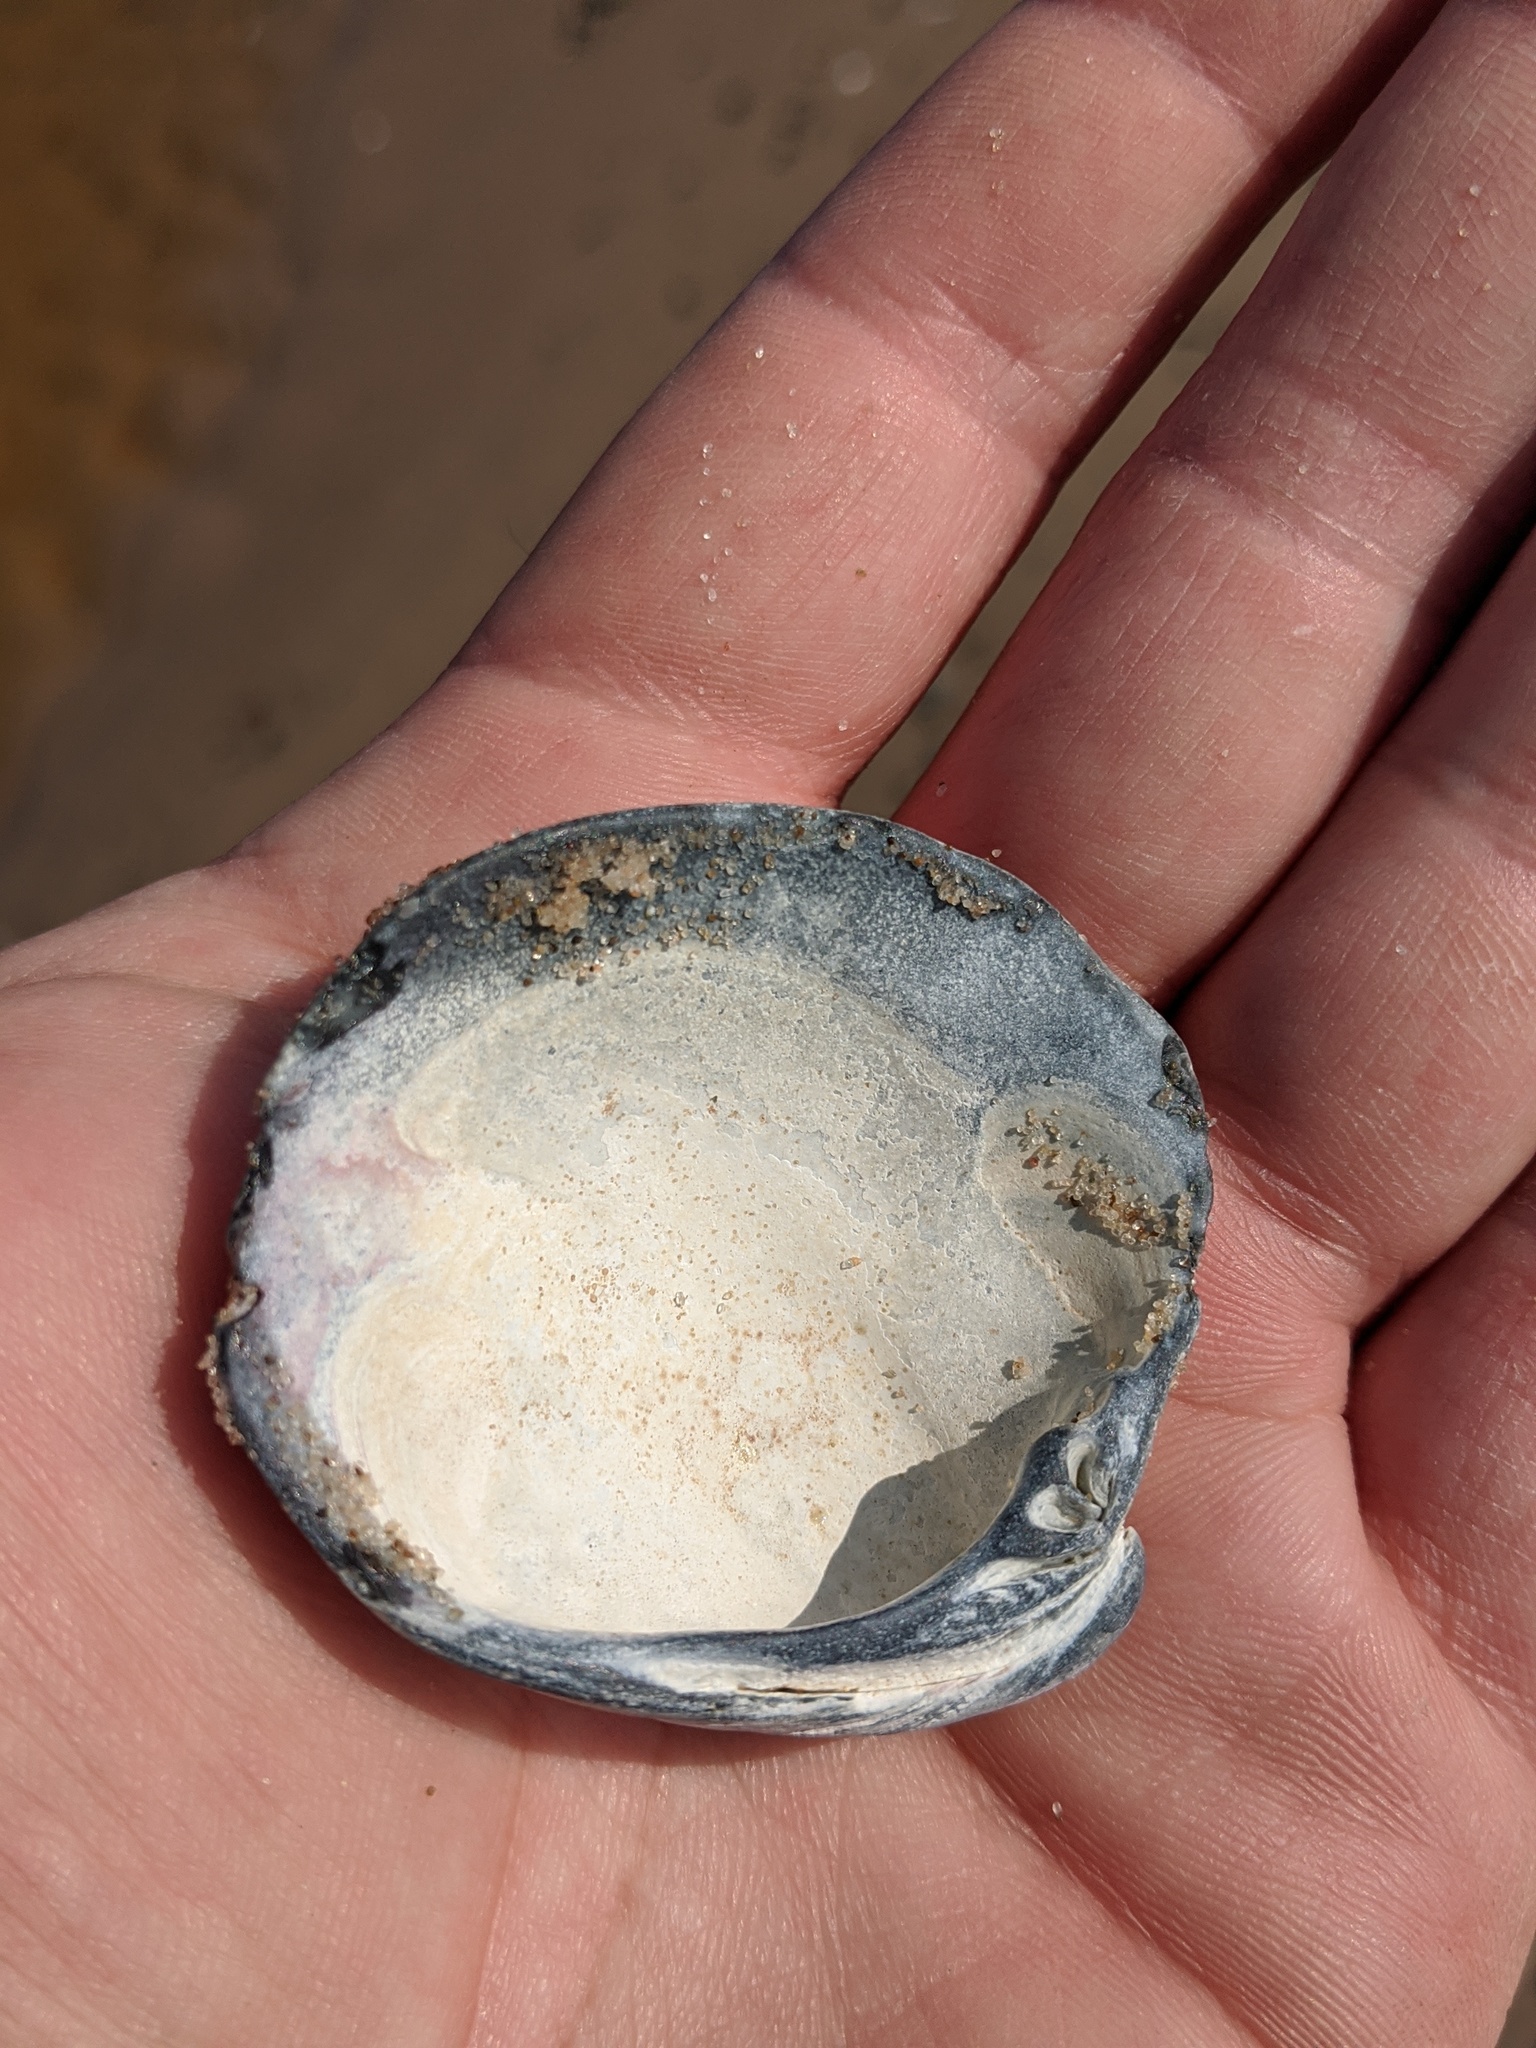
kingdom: Animalia
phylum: Mollusca
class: Bivalvia
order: Venerida
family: Veneridae
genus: Mercenaria
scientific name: Mercenaria mercenaria
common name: American hard-shelled clam
